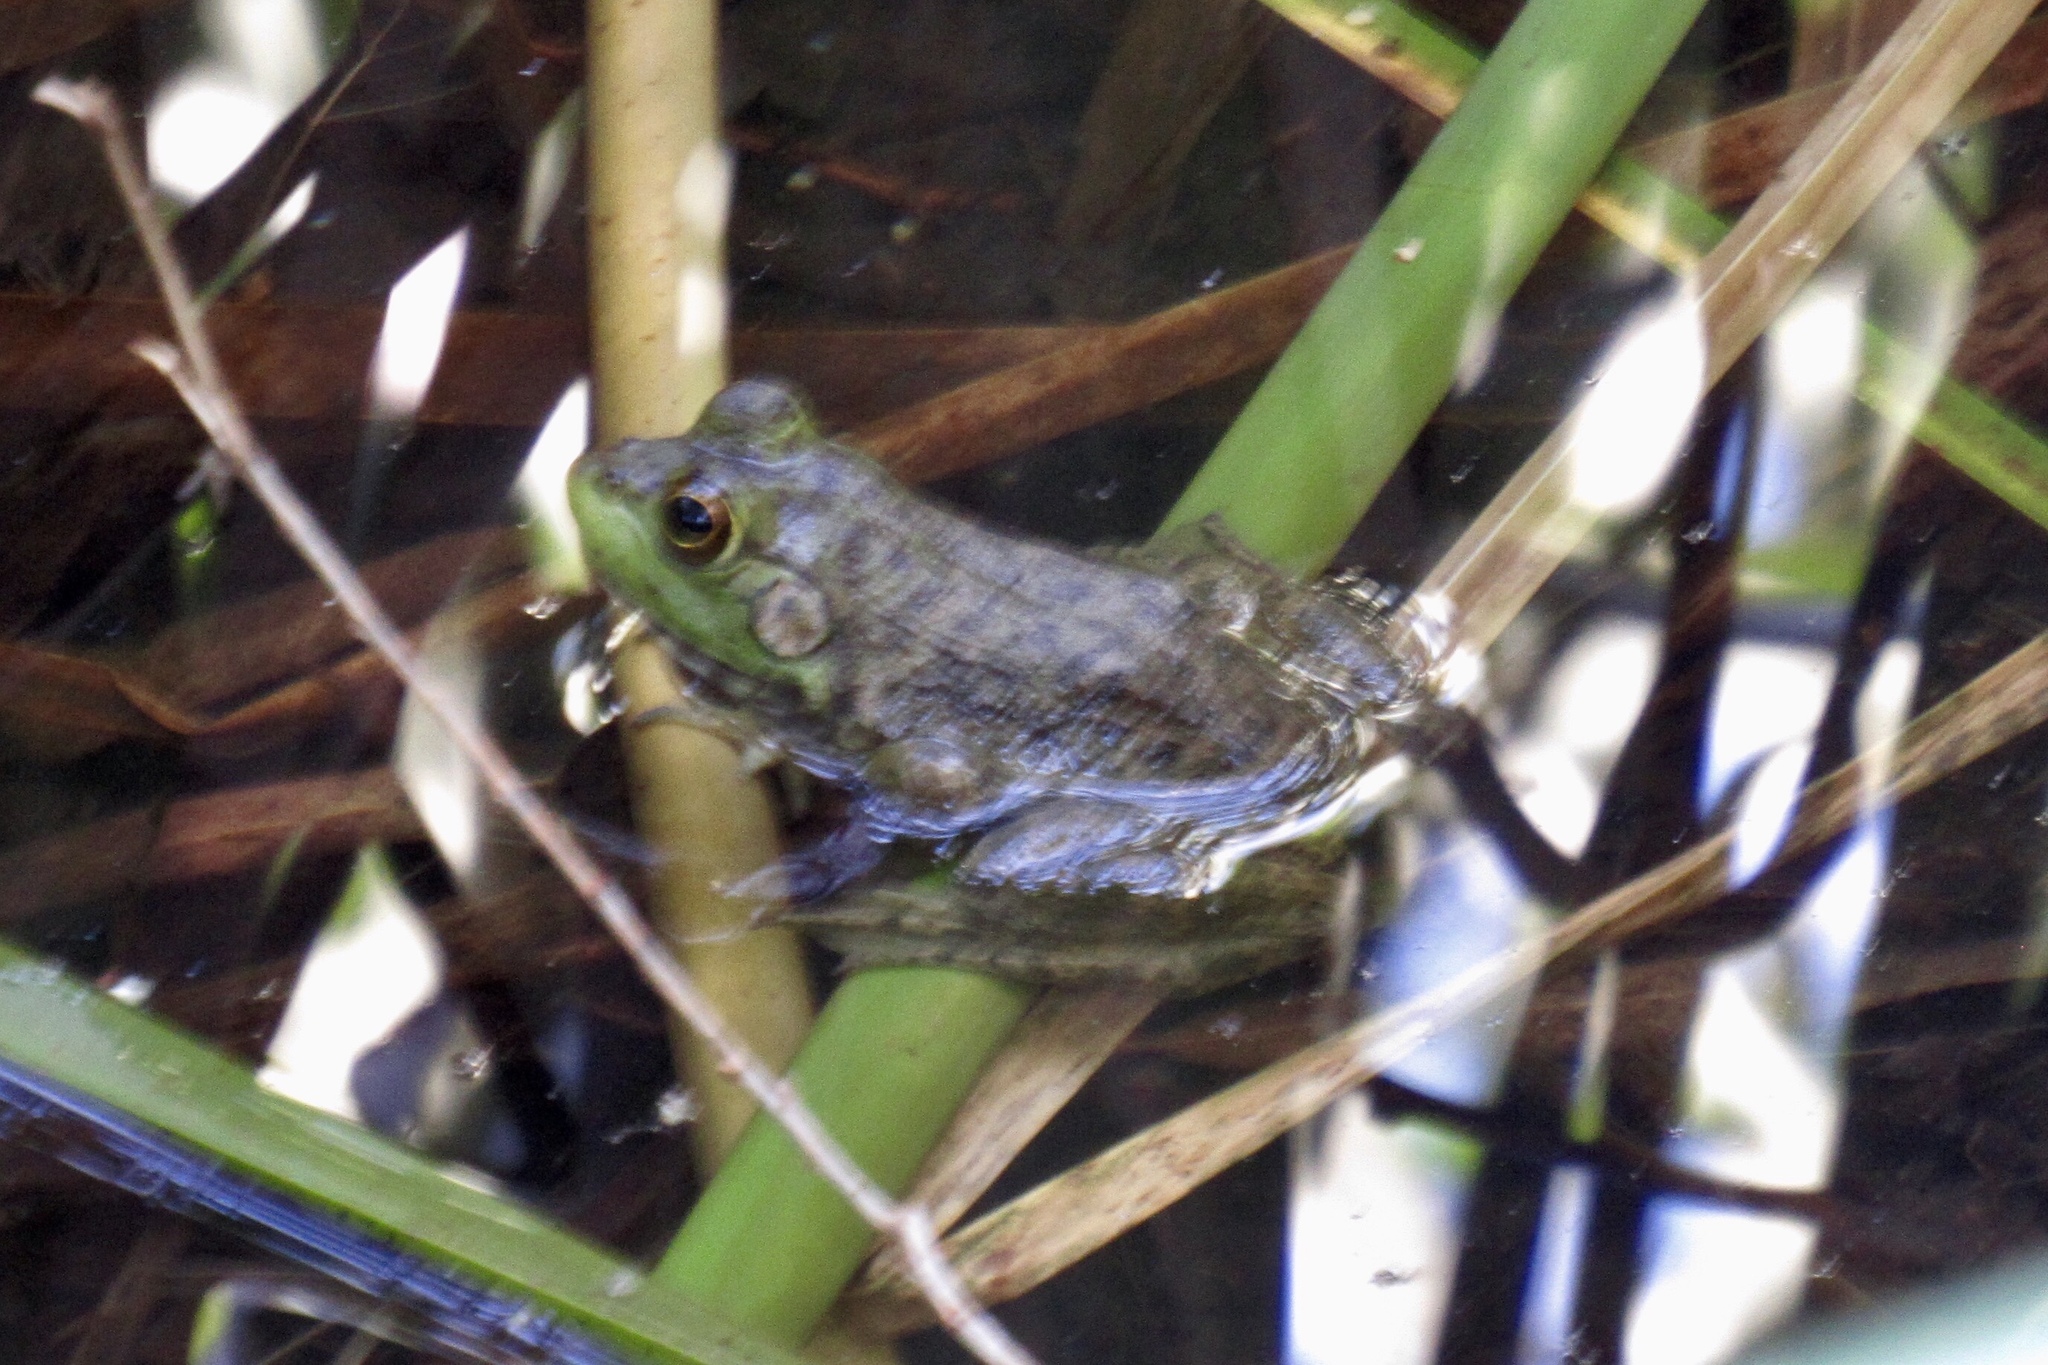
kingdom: Animalia
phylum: Chordata
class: Amphibia
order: Anura
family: Ranidae
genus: Lithobates
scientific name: Lithobates catesbeianus
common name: American bullfrog
